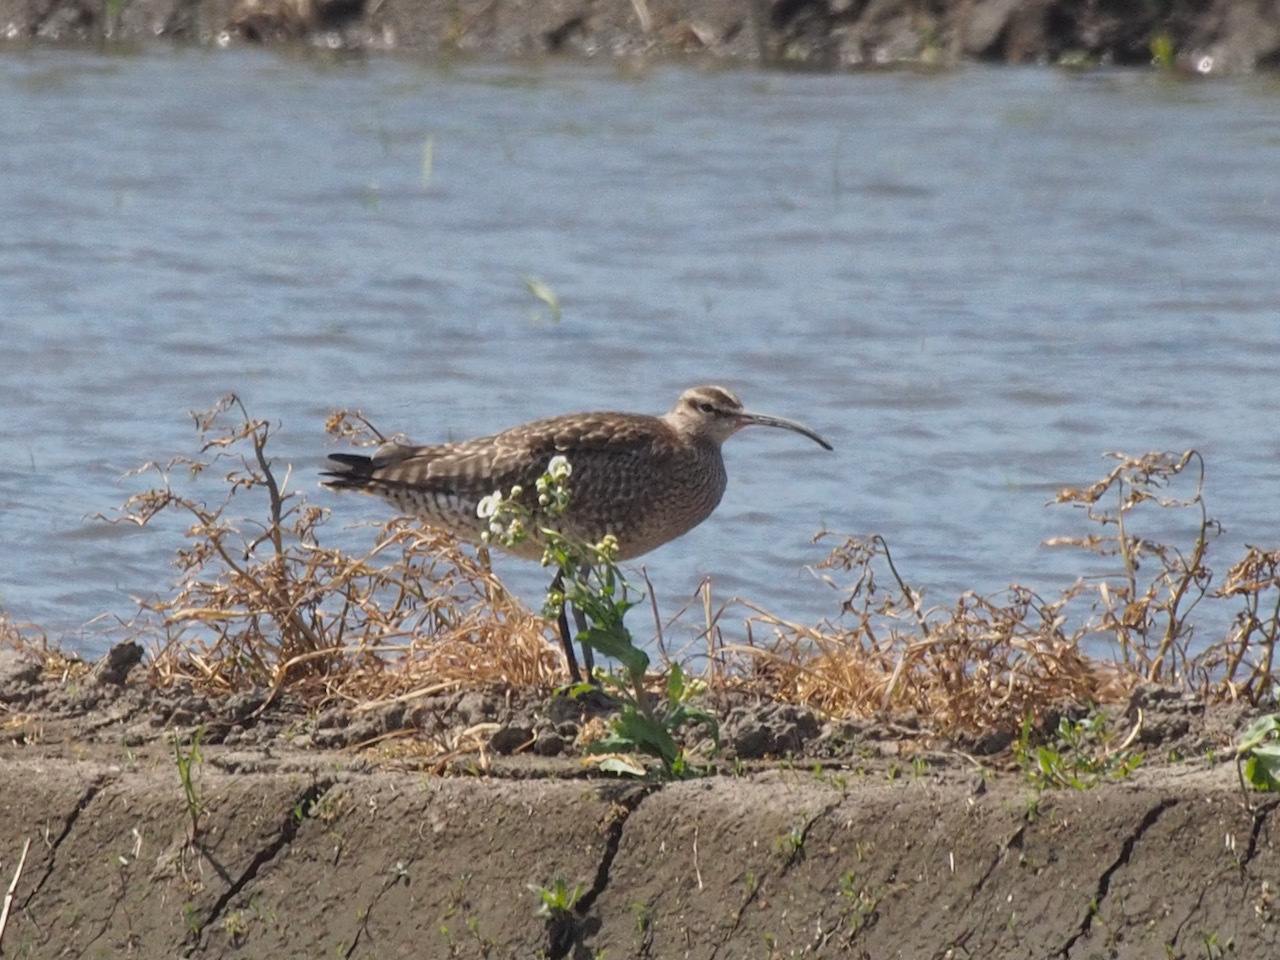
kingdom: Animalia
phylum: Chordata
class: Aves
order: Charadriiformes
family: Scolopacidae
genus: Numenius
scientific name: Numenius phaeopus
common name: Whimbrel
